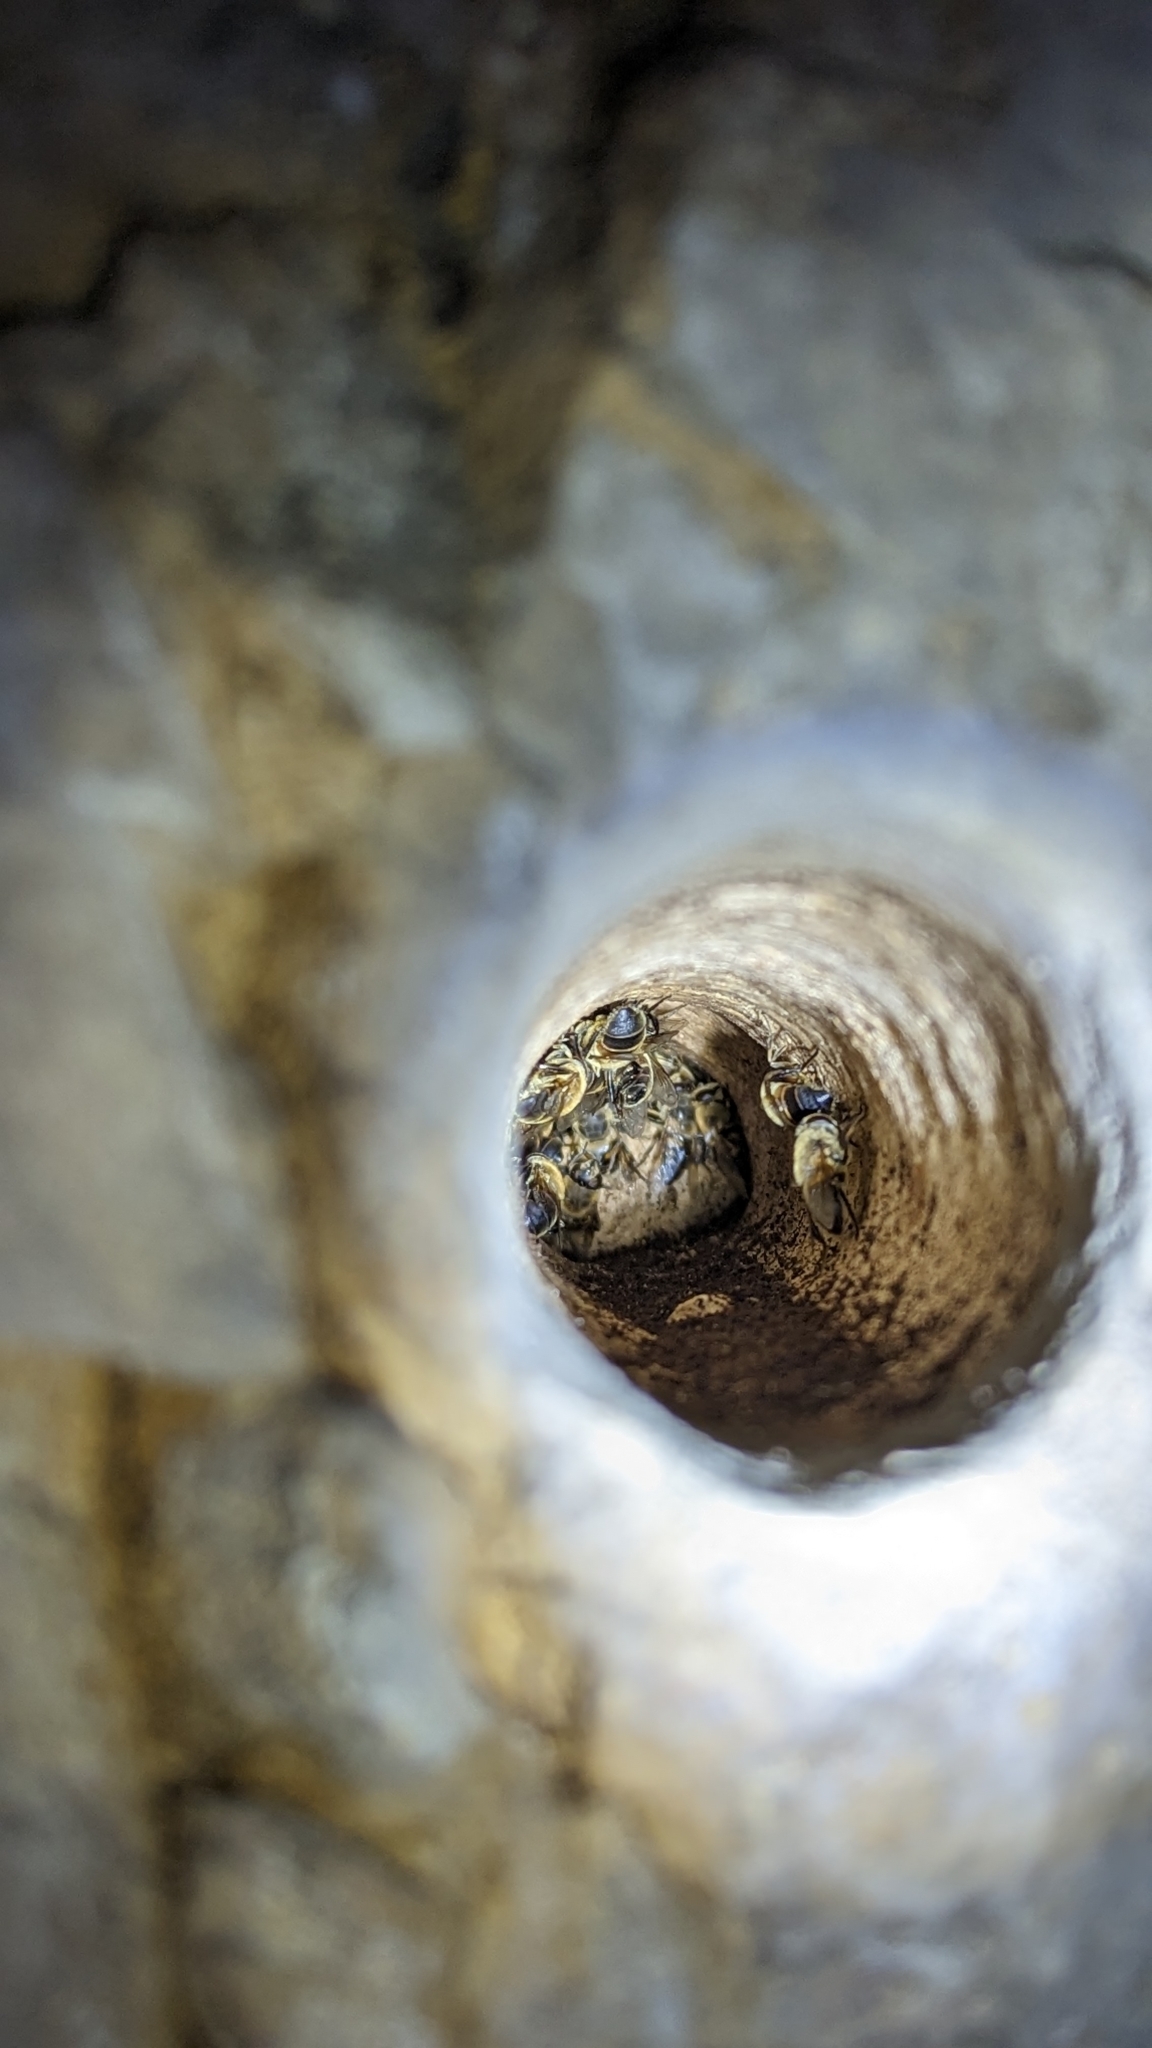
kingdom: Animalia
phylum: Arthropoda
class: Insecta
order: Diptera
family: Syrphidae
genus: Eristalis
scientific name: Eristalis tenax
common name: Drone fly
